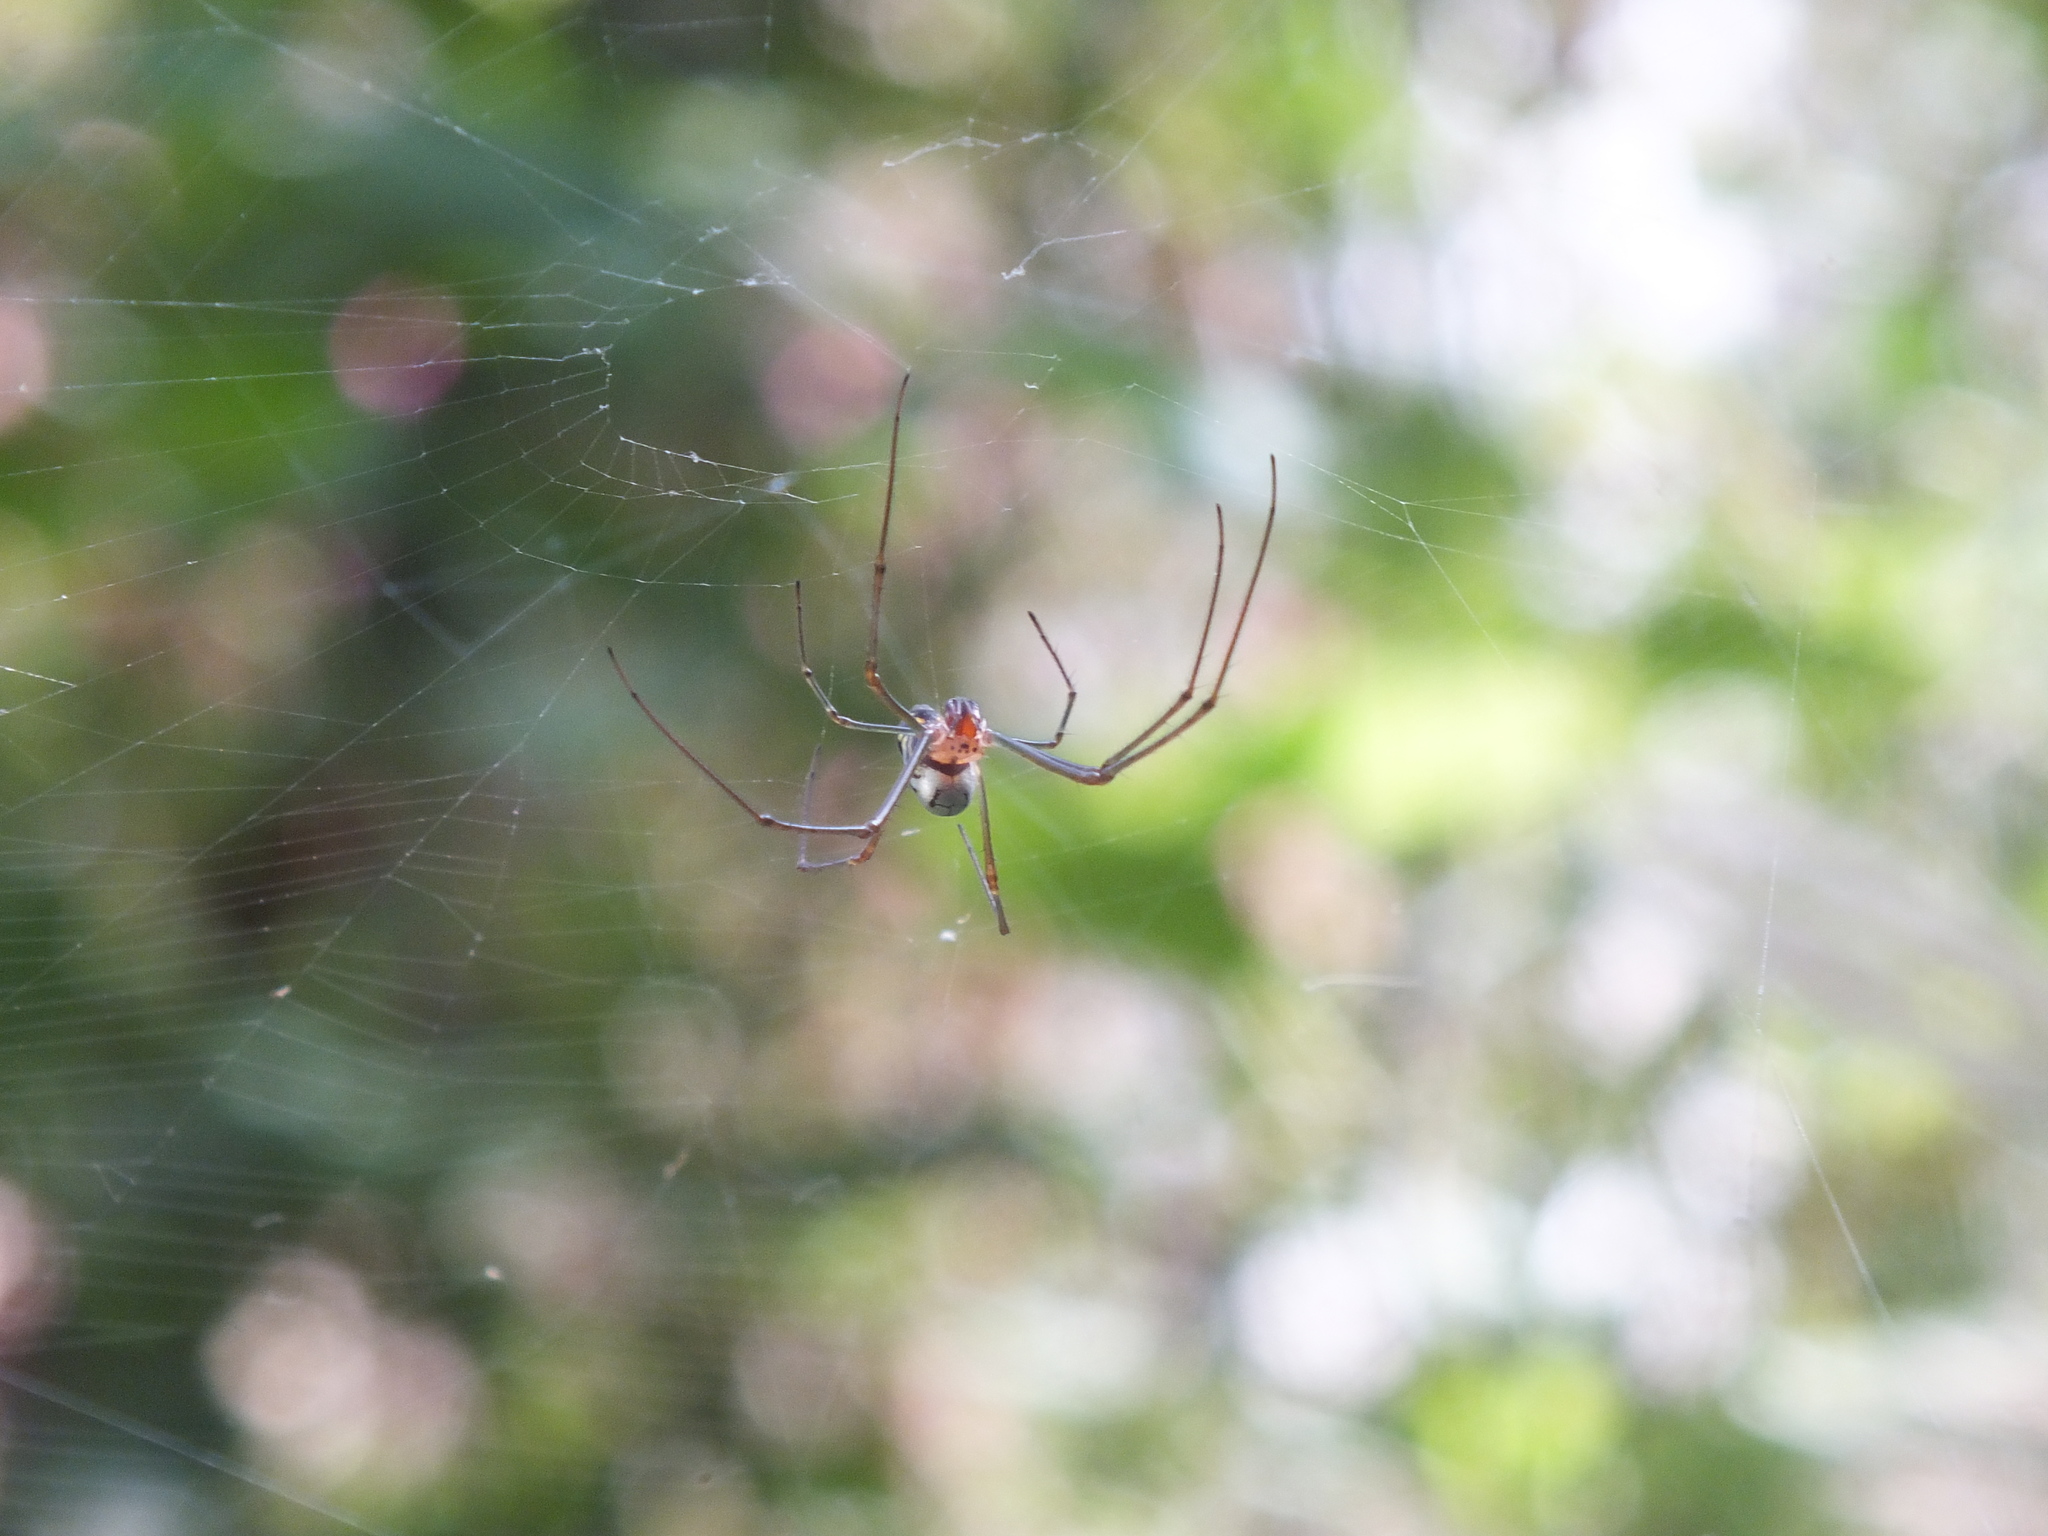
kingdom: Animalia
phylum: Arthropoda
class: Arachnida
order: Araneae
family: Tetragnathidae
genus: Leucauge
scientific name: Leucauge argyra
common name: Longjawed orb weavers
